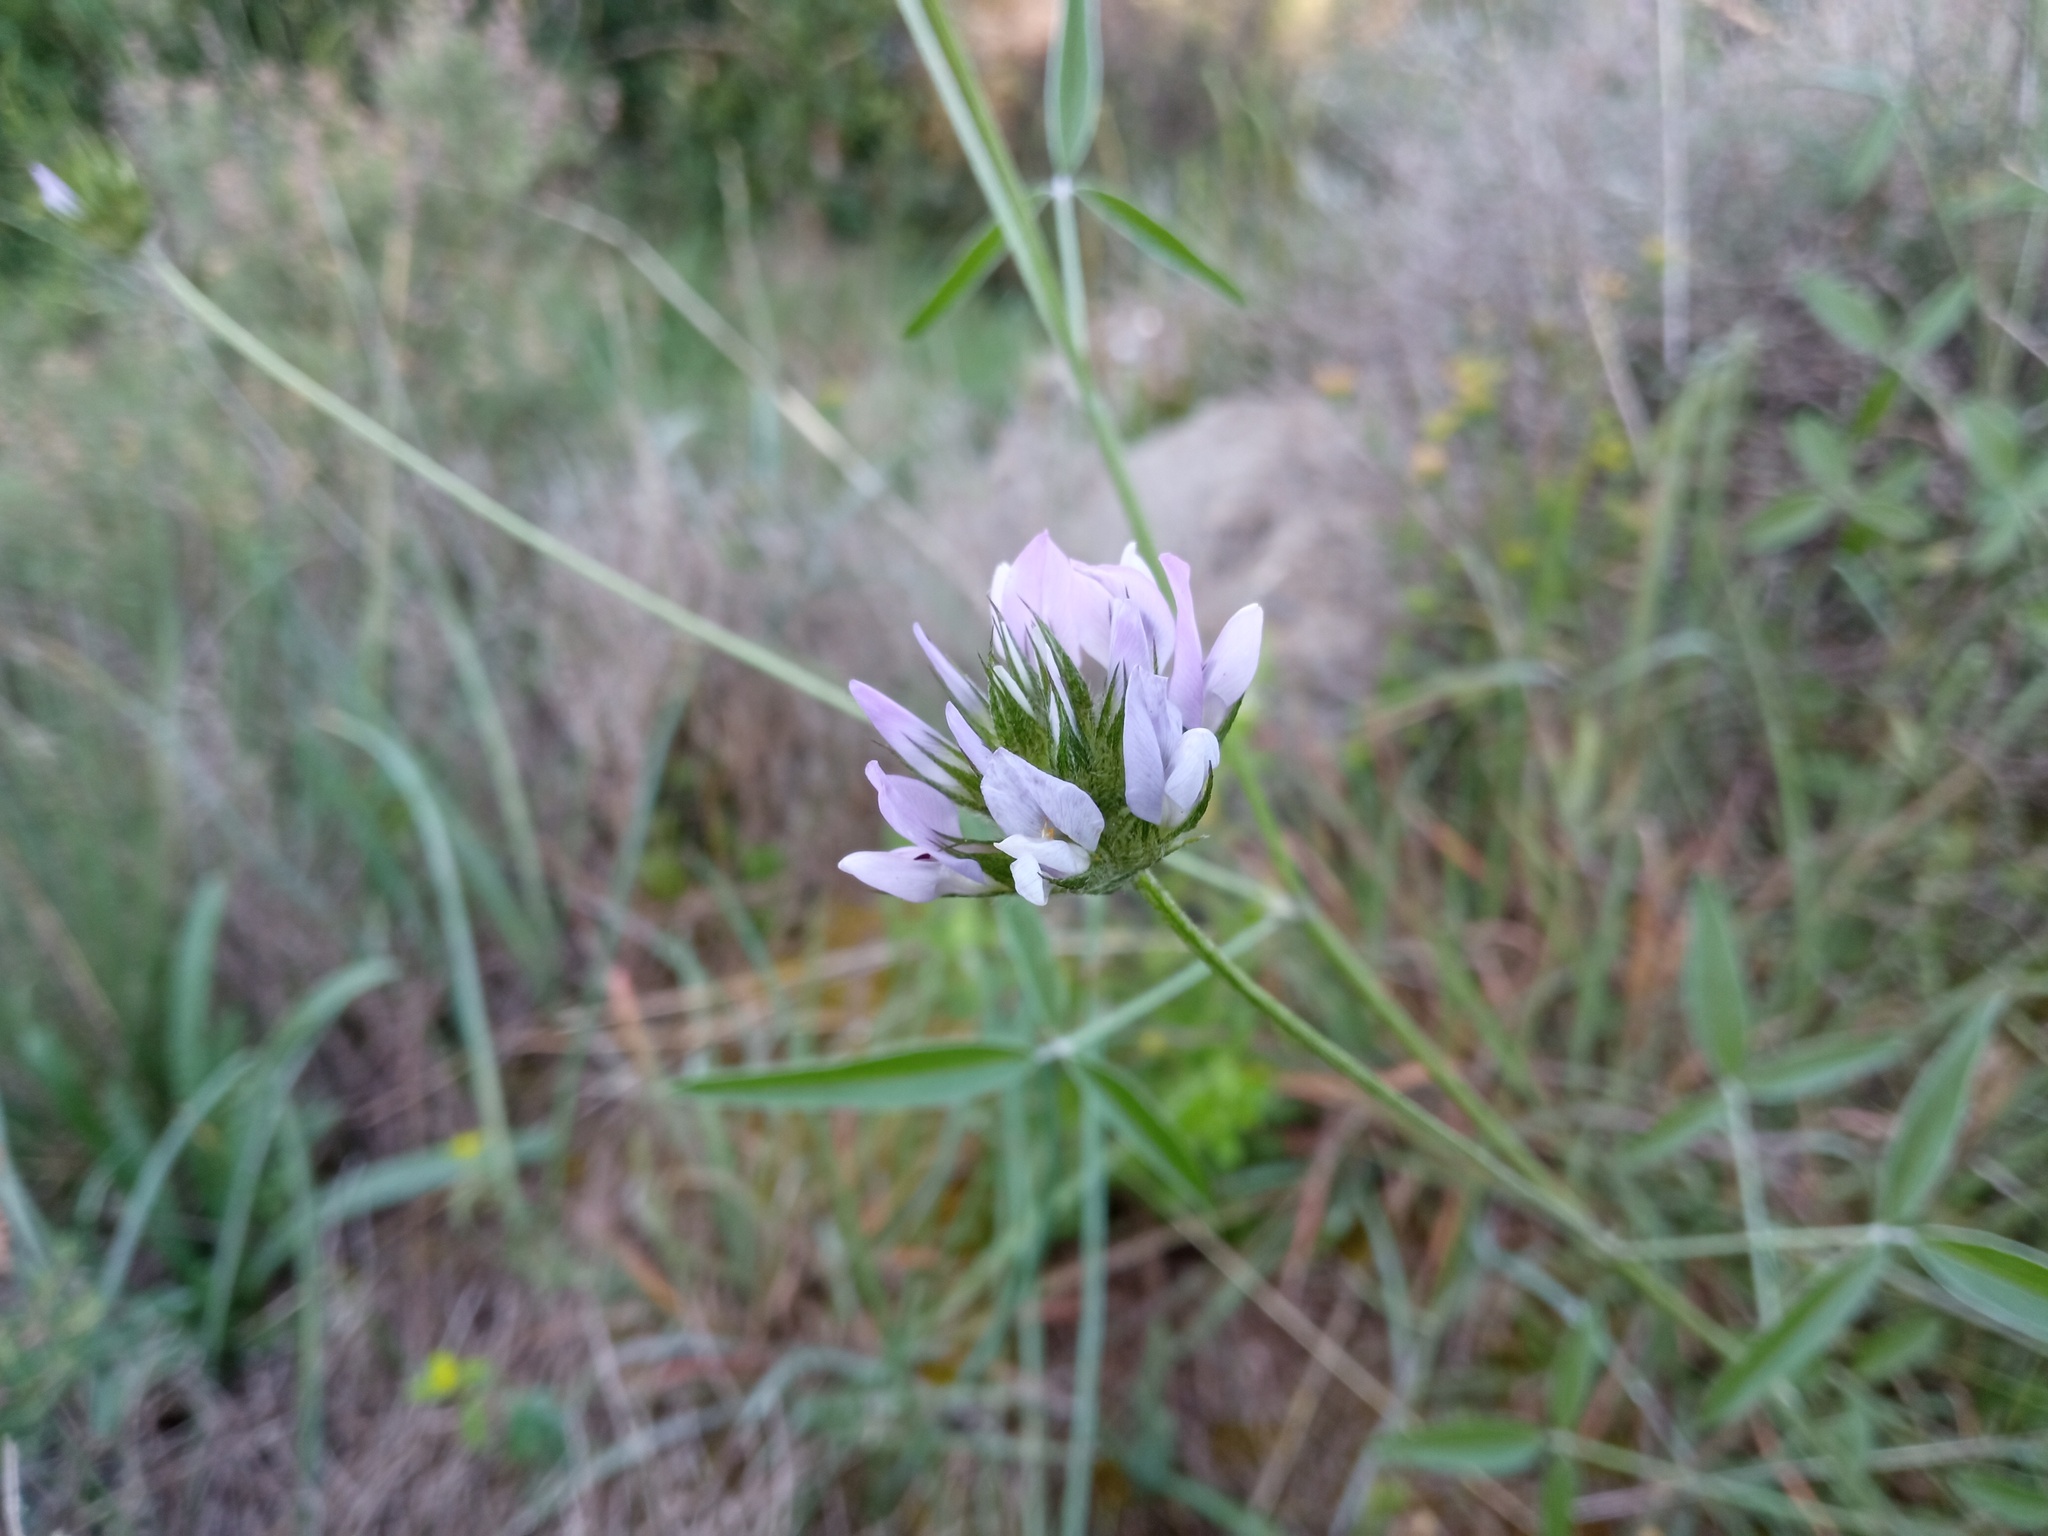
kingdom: Plantae
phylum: Tracheophyta
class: Magnoliopsida
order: Fabales
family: Fabaceae
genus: Bituminaria
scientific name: Bituminaria bituminosa
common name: Arabian pea
